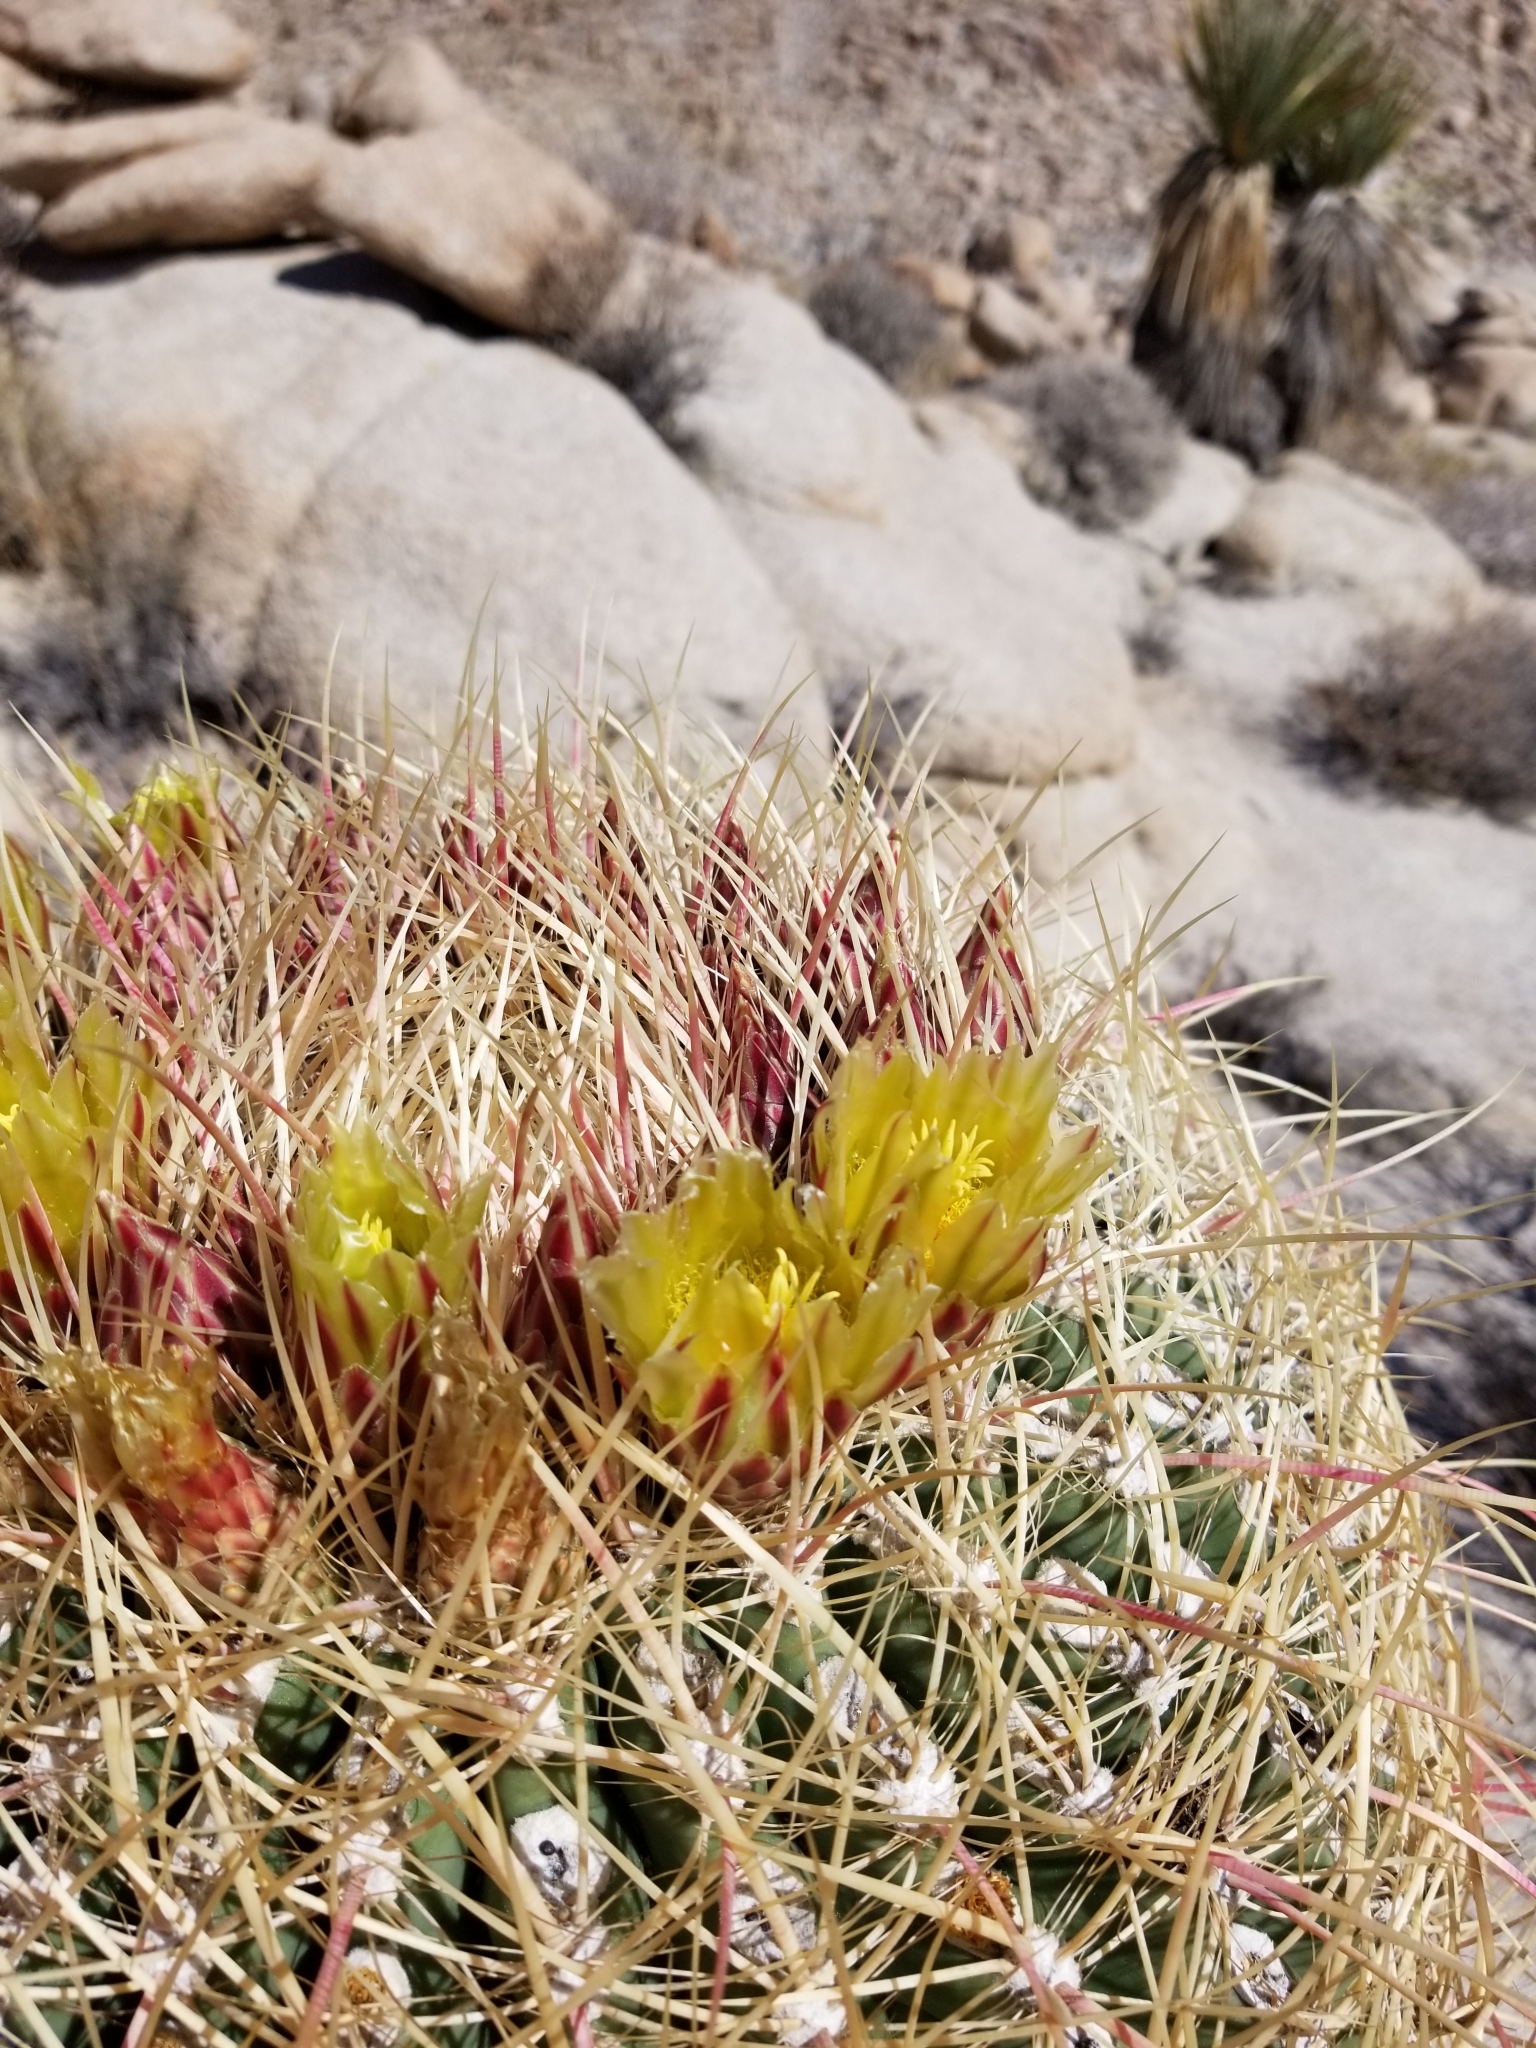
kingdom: Plantae
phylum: Tracheophyta
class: Magnoliopsida
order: Caryophyllales
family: Cactaceae
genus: Ferocactus
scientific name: Ferocactus cylindraceus
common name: California barrel cactus
